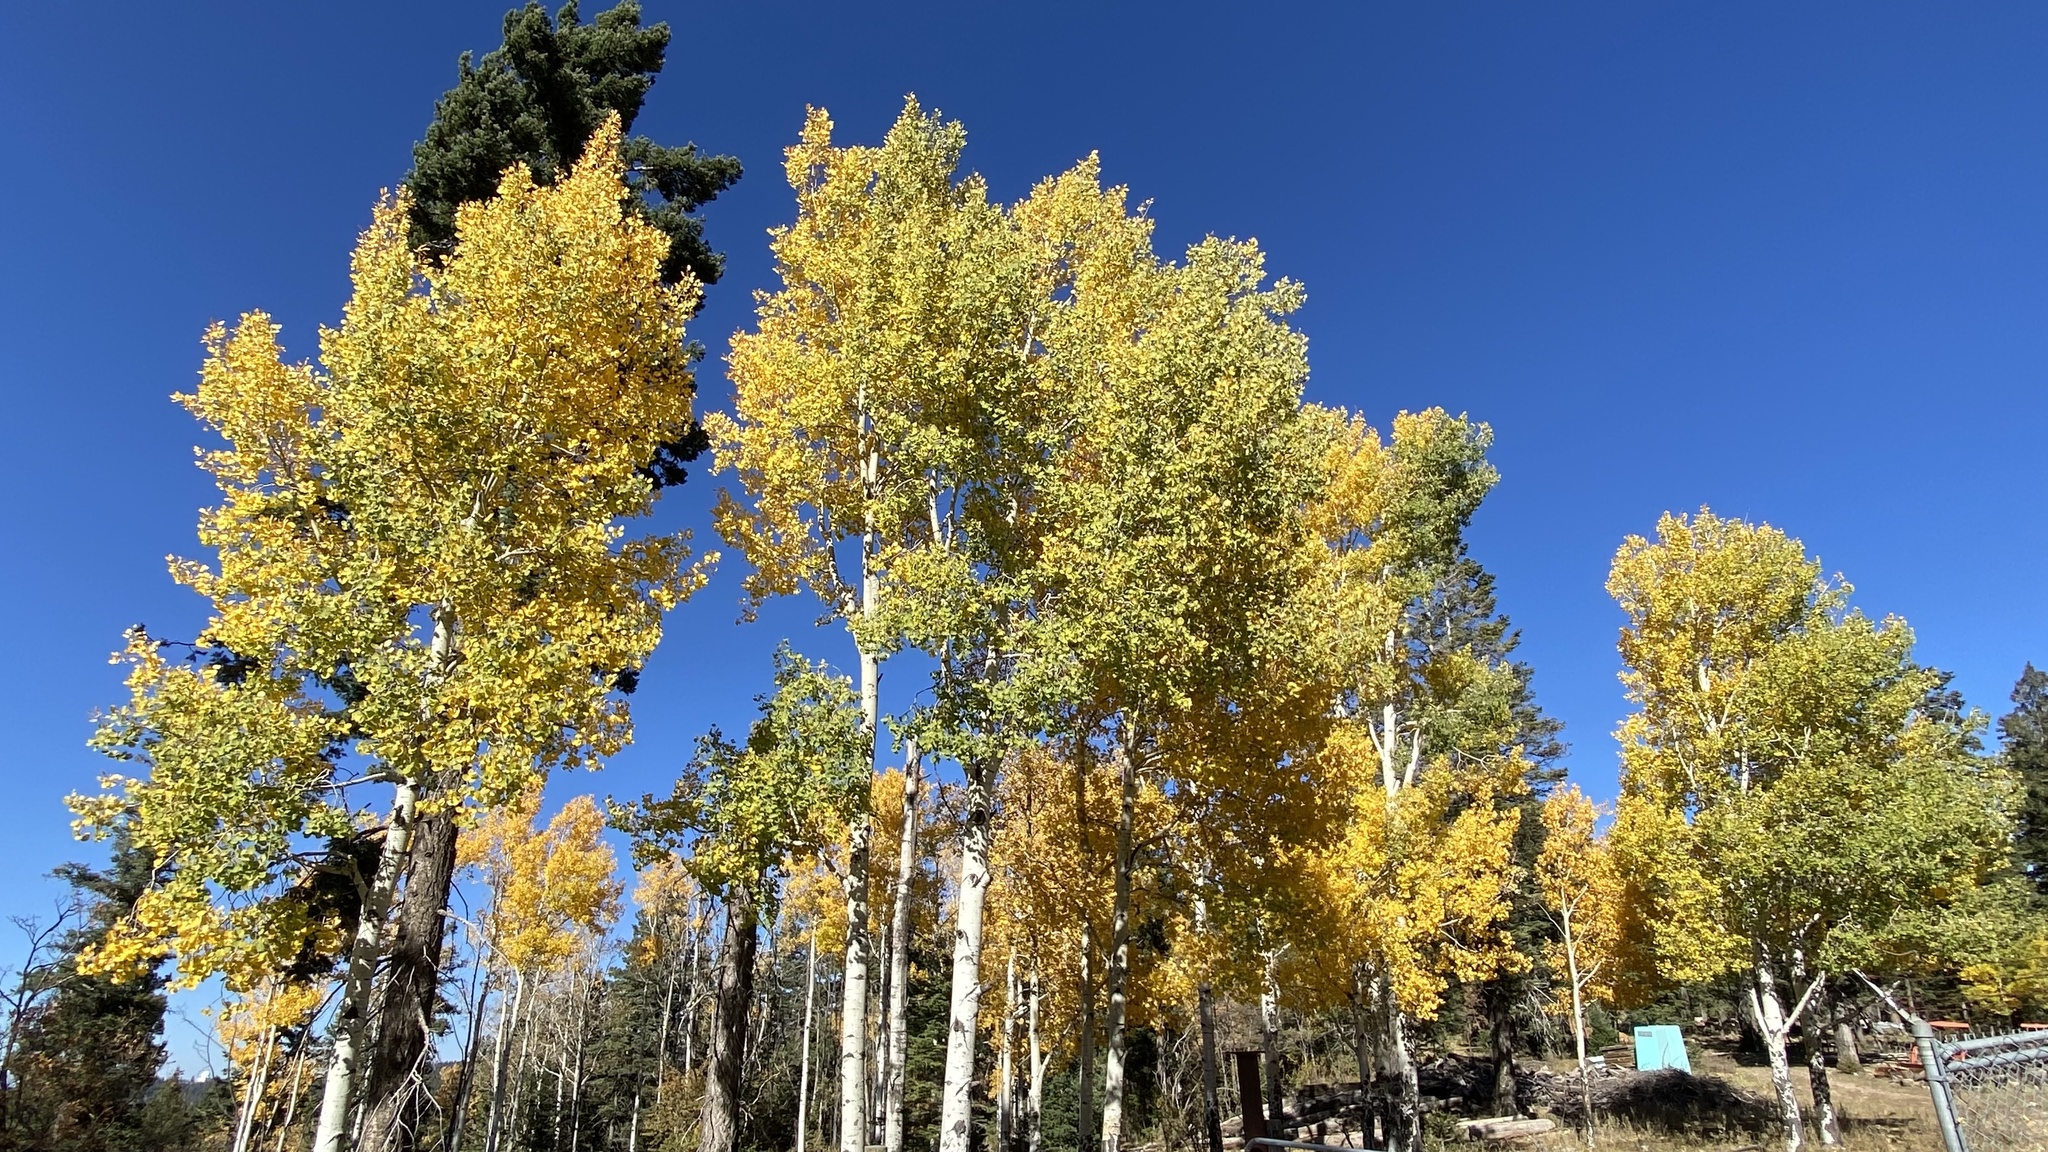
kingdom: Plantae
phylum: Tracheophyta
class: Magnoliopsida
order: Malpighiales
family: Salicaceae
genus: Populus
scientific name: Populus tremuloides
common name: Quaking aspen
